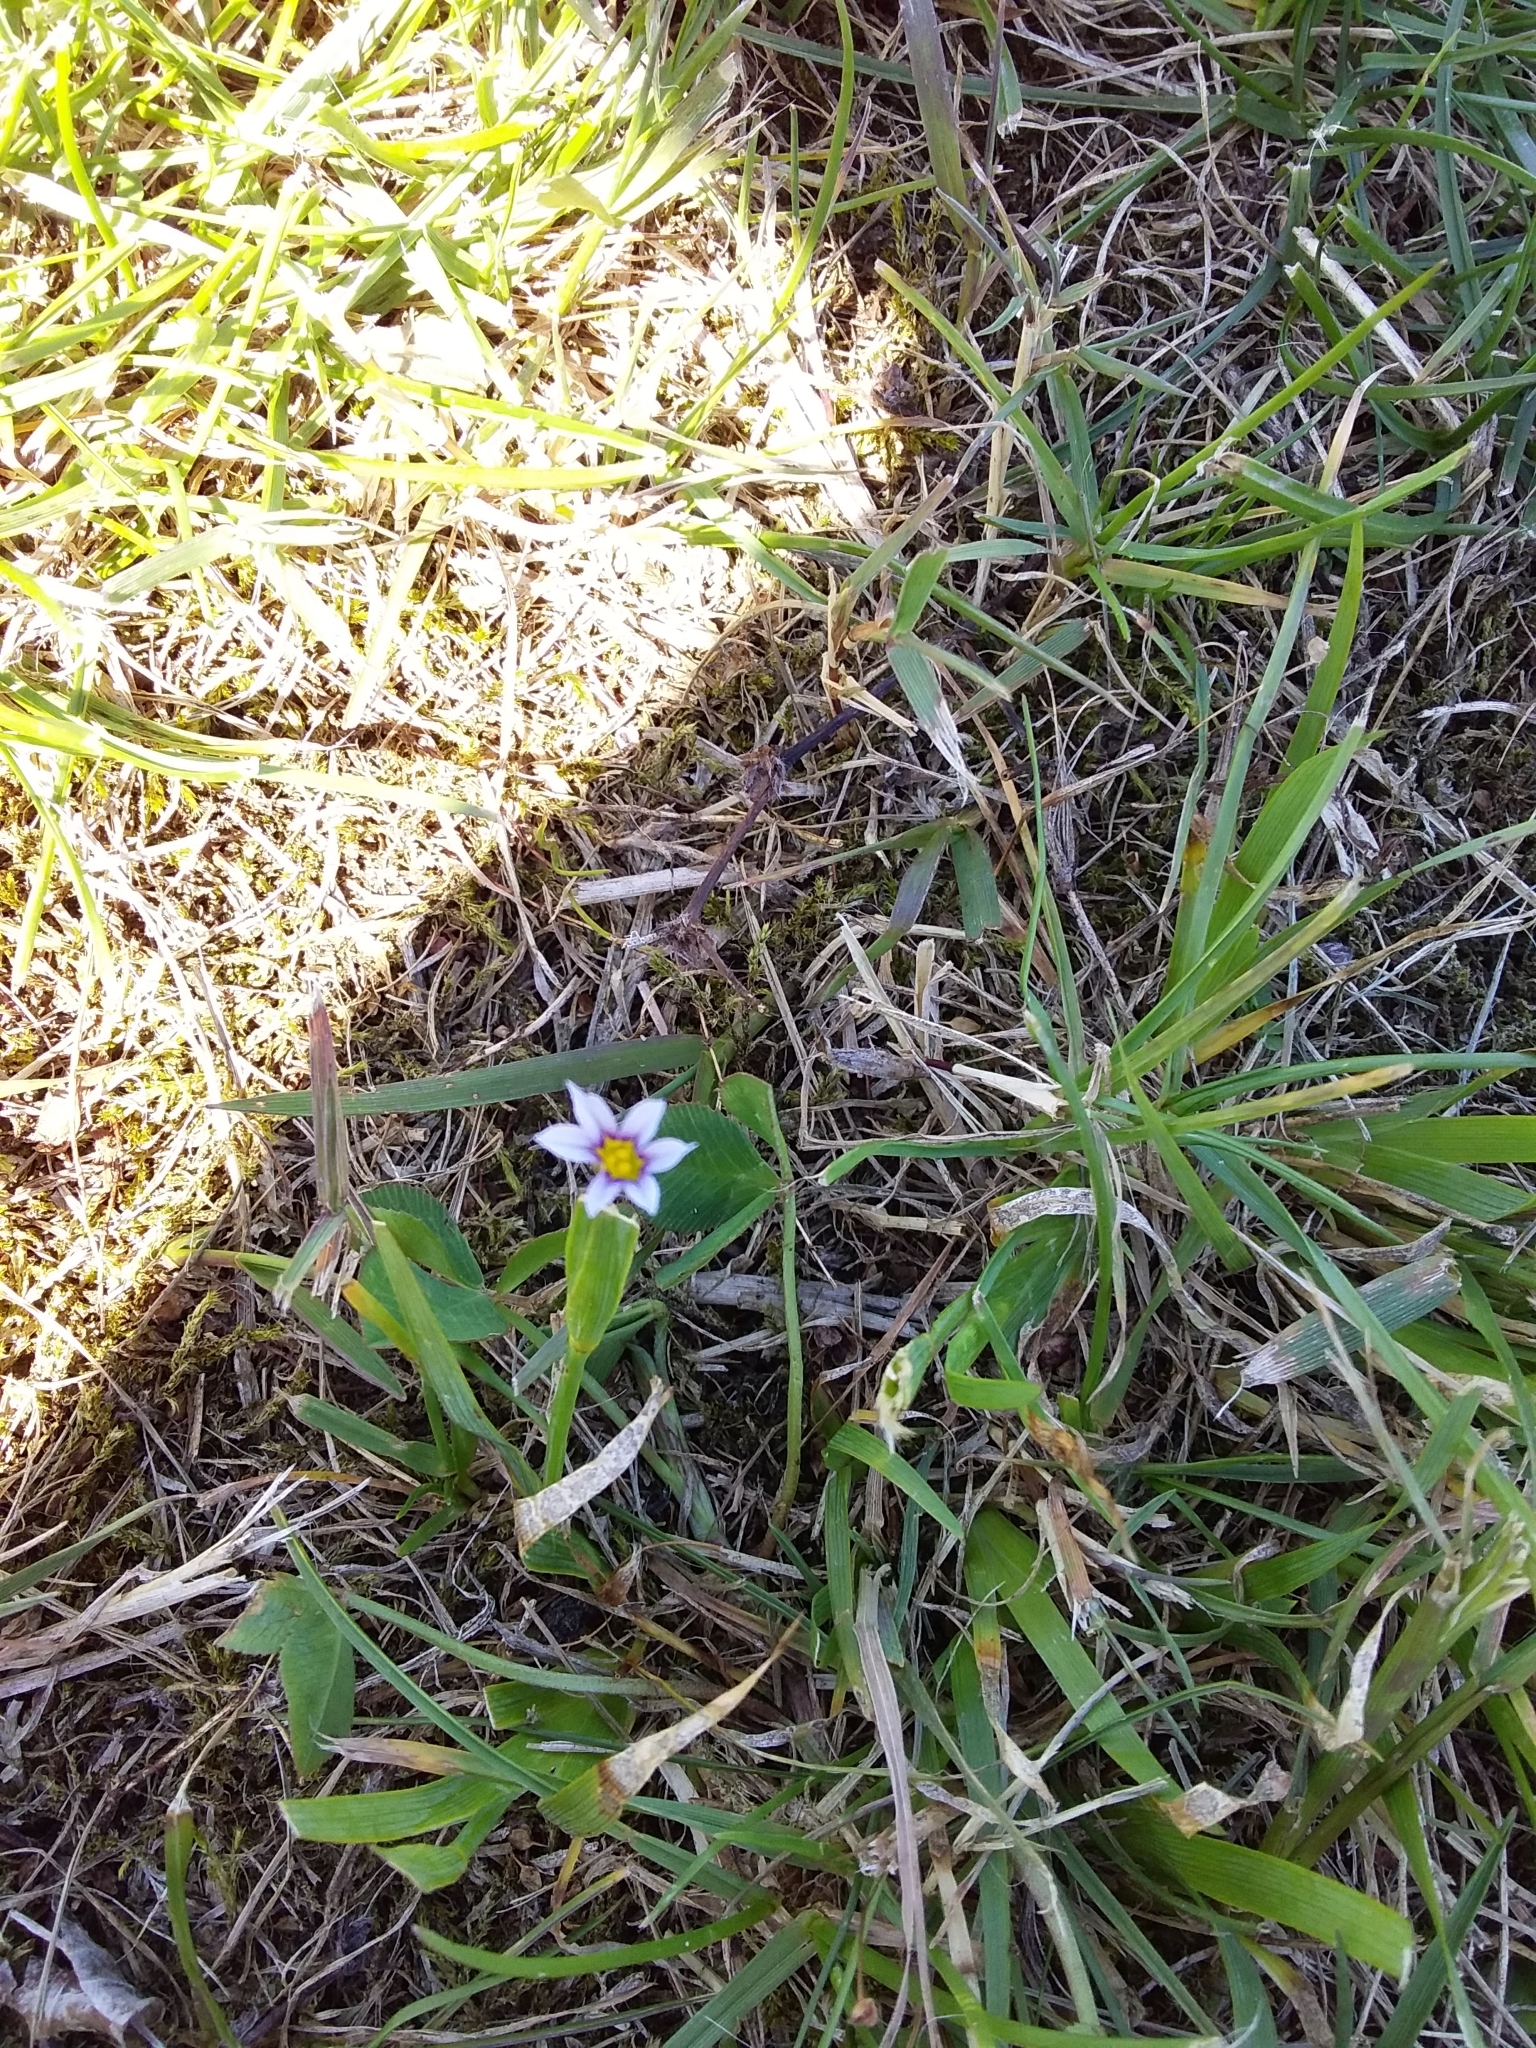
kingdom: Plantae
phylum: Tracheophyta
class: Liliopsida
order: Asparagales
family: Iridaceae
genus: Sisyrinchium
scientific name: Sisyrinchium micranthum
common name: Bermuda pigroot
